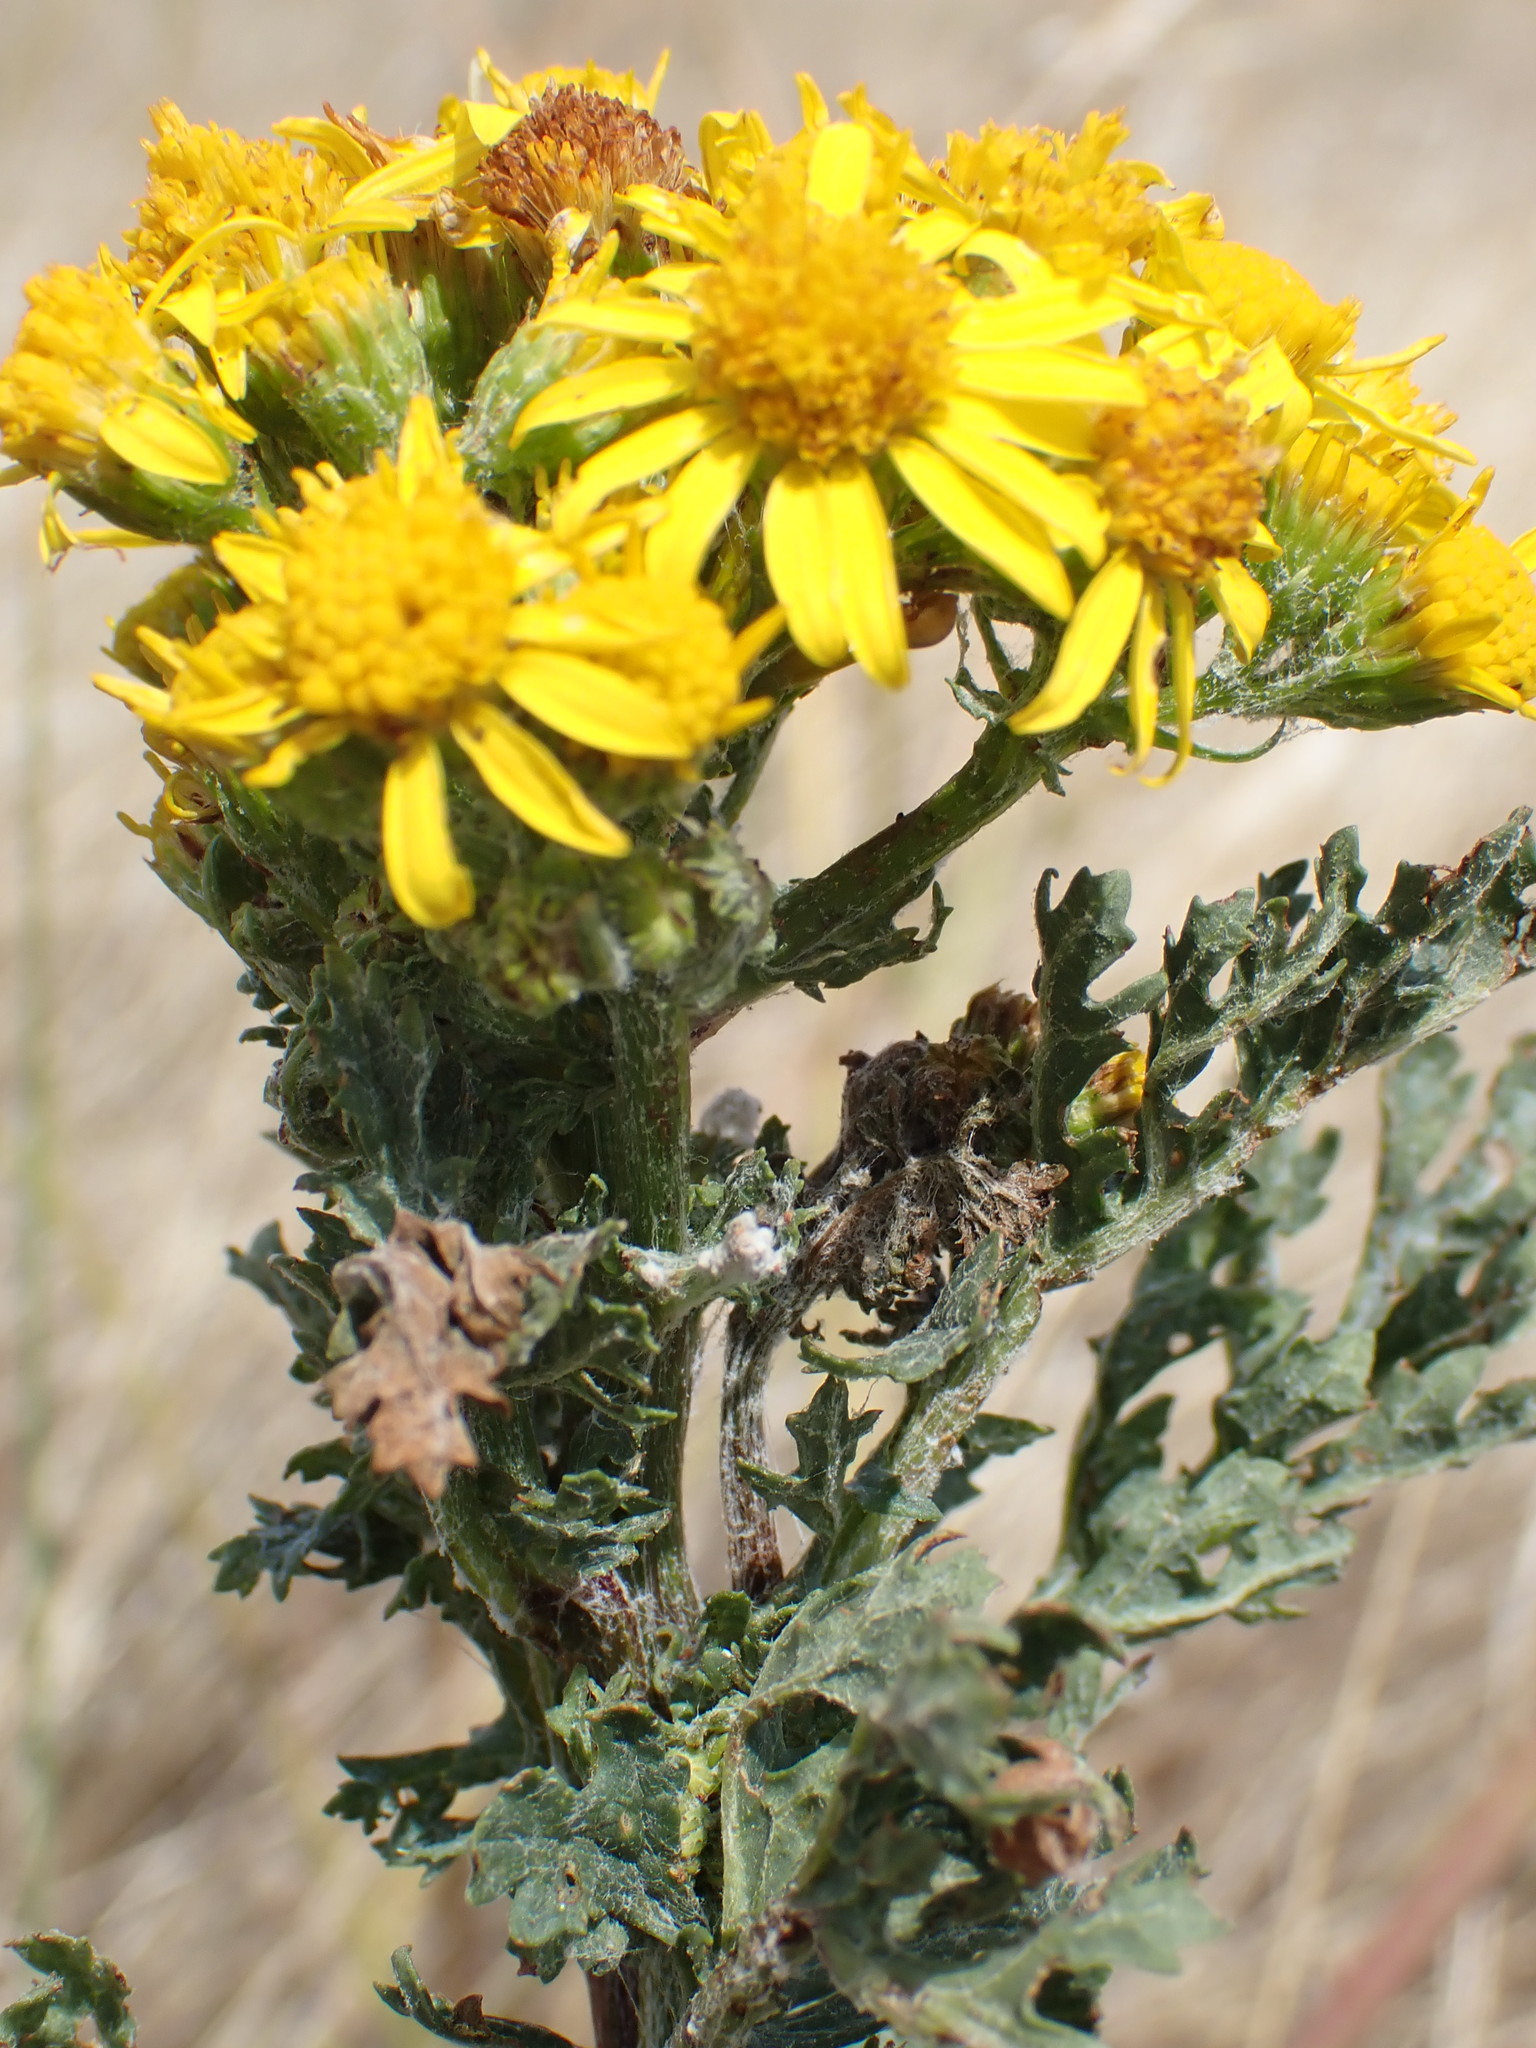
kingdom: Plantae
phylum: Tracheophyta
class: Magnoliopsida
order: Asterales
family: Asteraceae
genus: Jacobaea
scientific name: Jacobaea vulgaris
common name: Stinking willie
